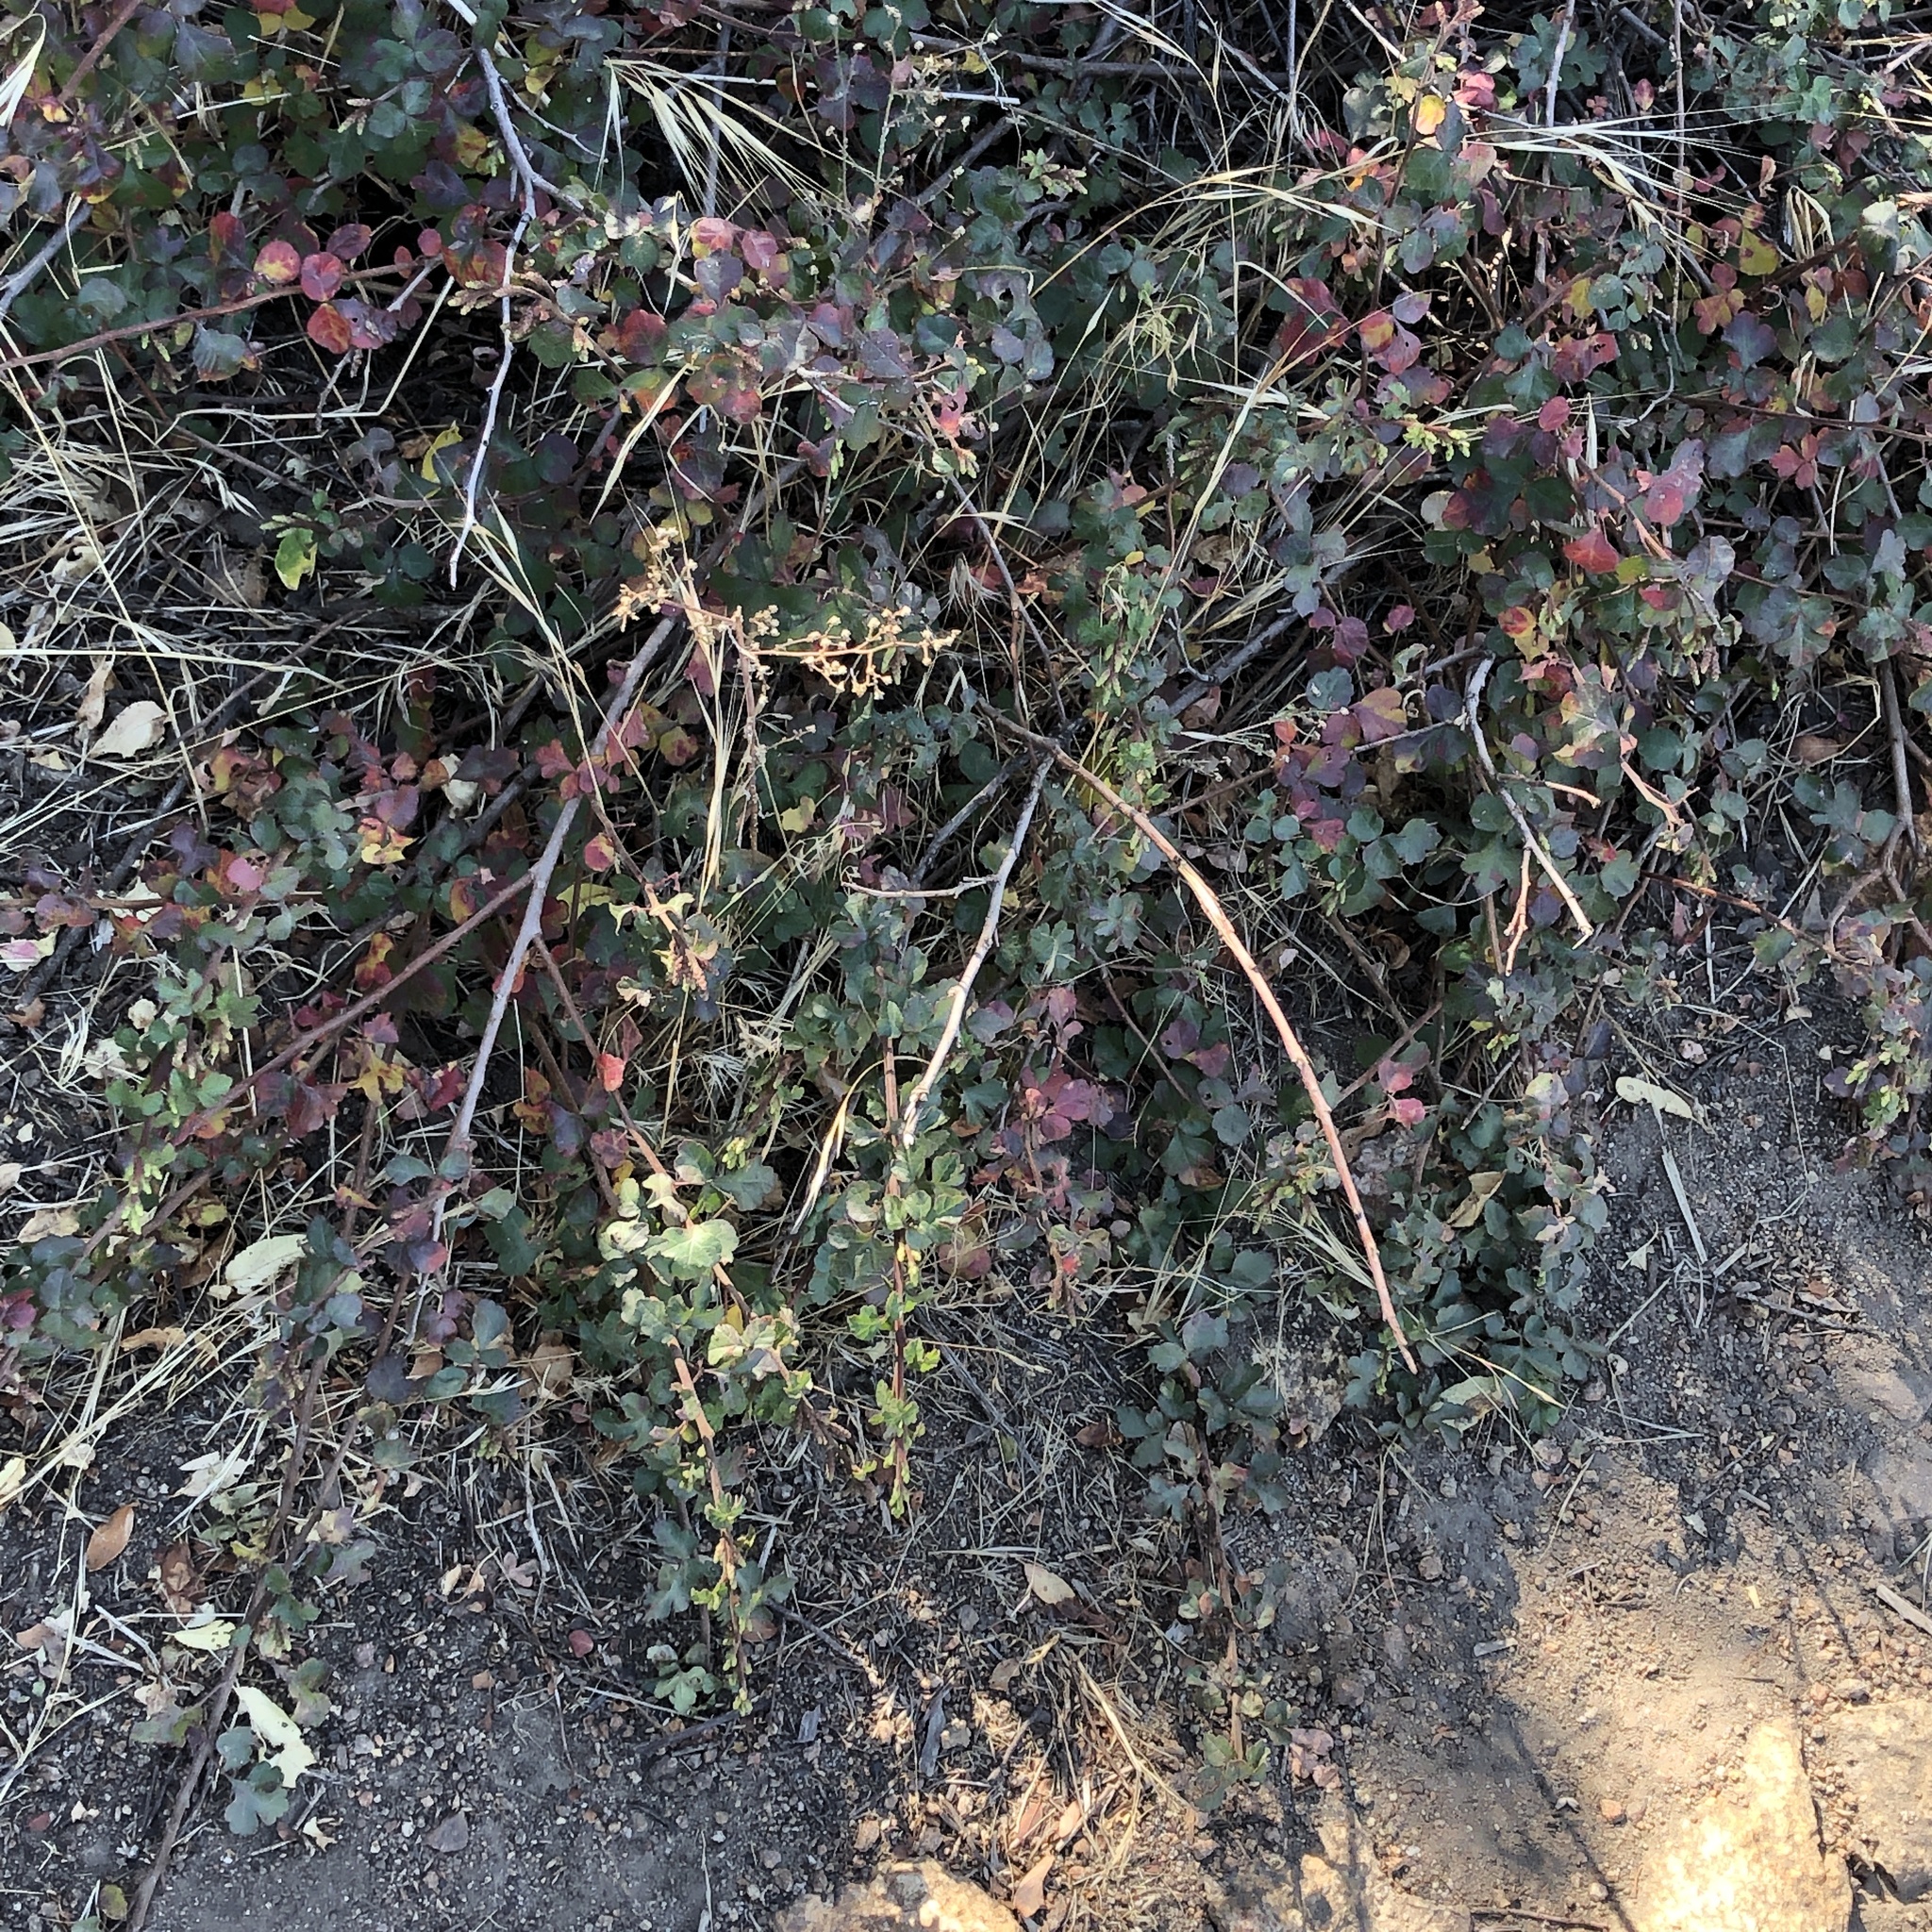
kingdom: Plantae
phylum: Tracheophyta
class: Magnoliopsida
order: Sapindales
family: Anacardiaceae
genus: Rhus
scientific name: Rhus aromatica
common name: Aromatic sumac
